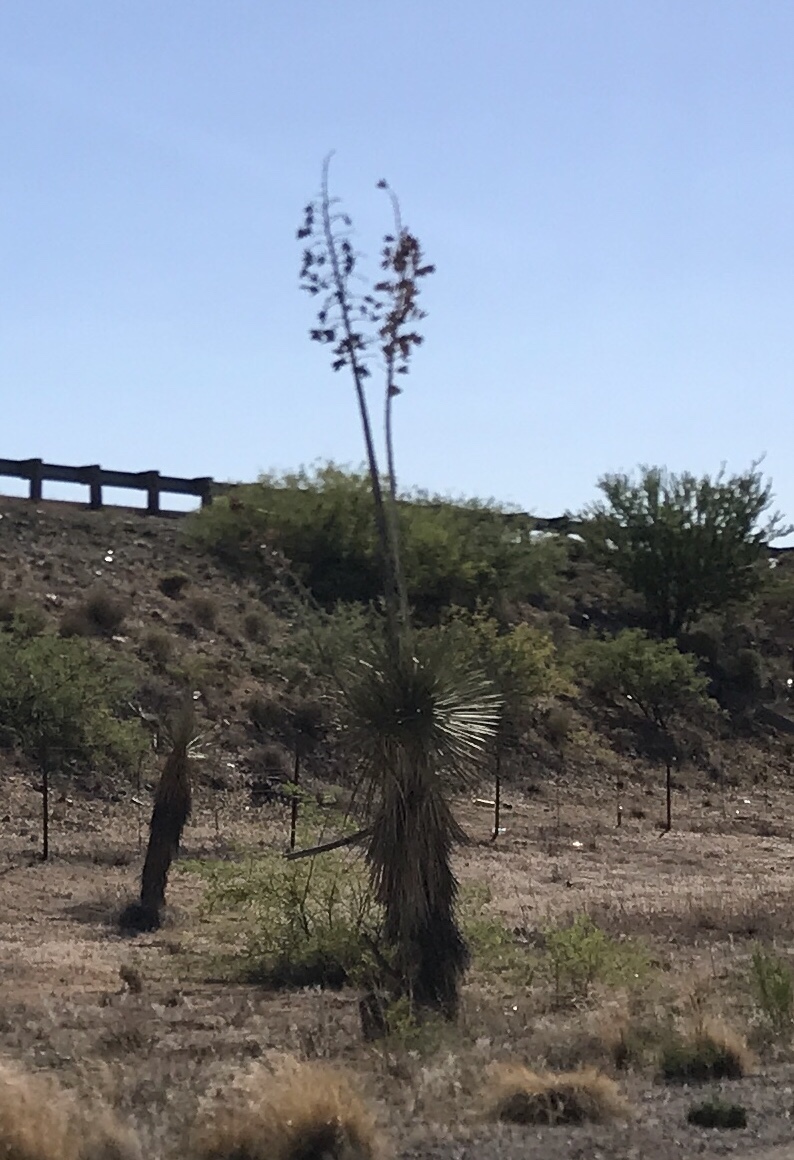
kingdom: Plantae
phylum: Tracheophyta
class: Liliopsida
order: Asparagales
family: Asparagaceae
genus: Yucca
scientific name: Yucca elata
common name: Palmella
